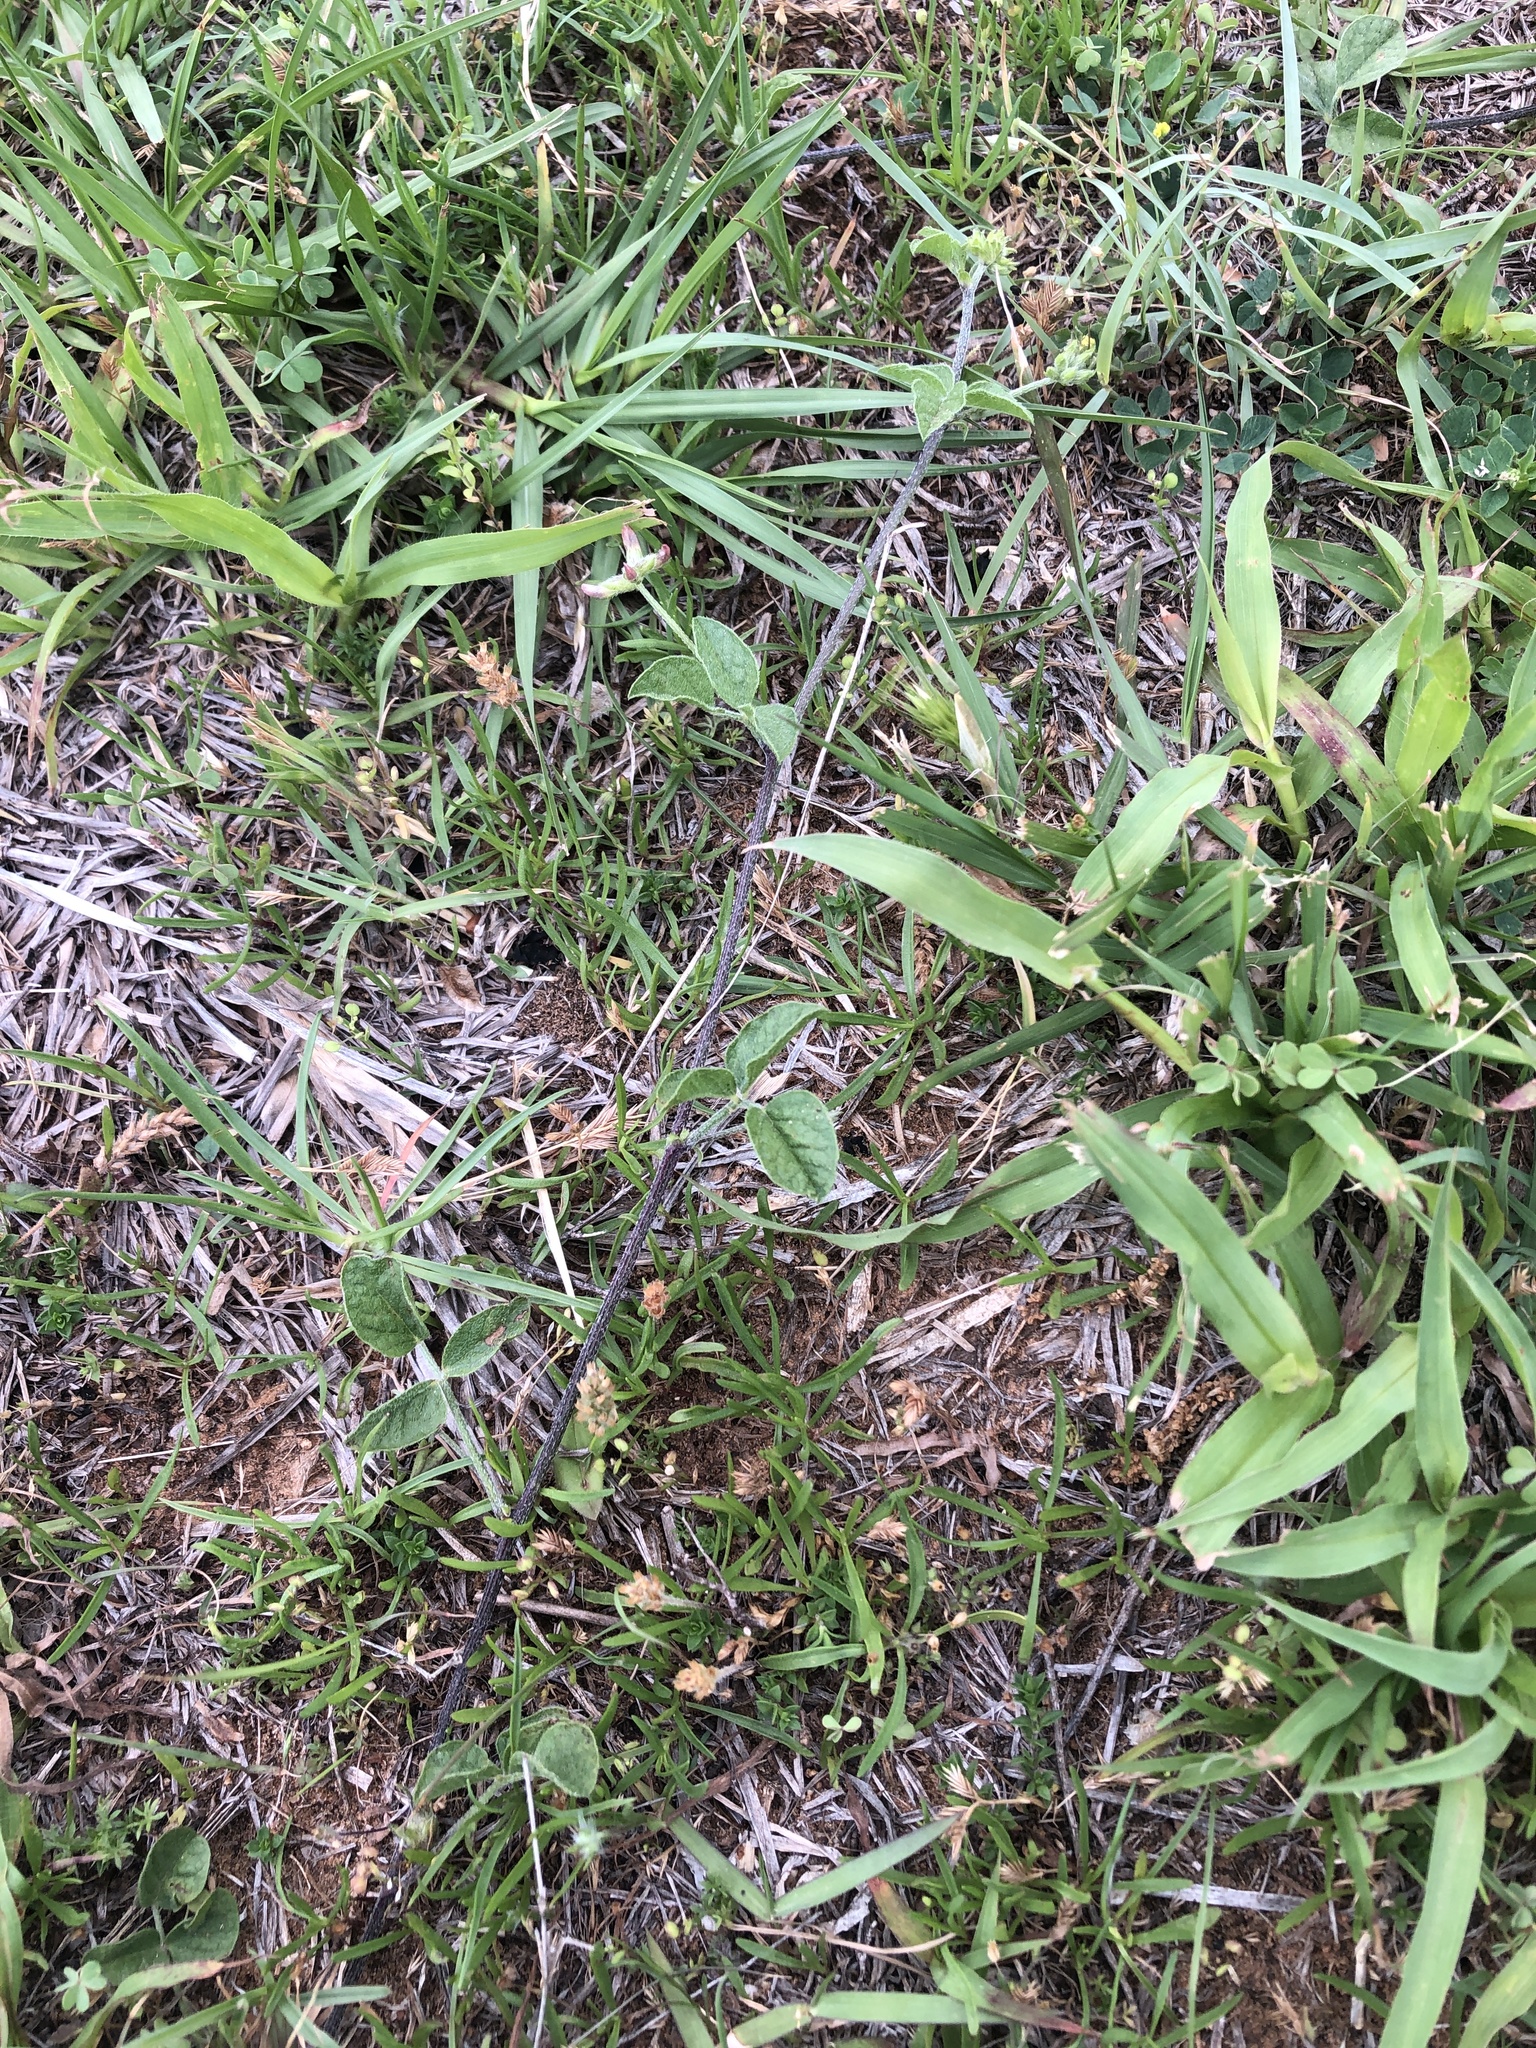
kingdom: Plantae
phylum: Tracheophyta
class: Magnoliopsida
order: Fabales
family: Fabaceae
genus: Pediomelum
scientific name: Pediomelum rhombifolium
